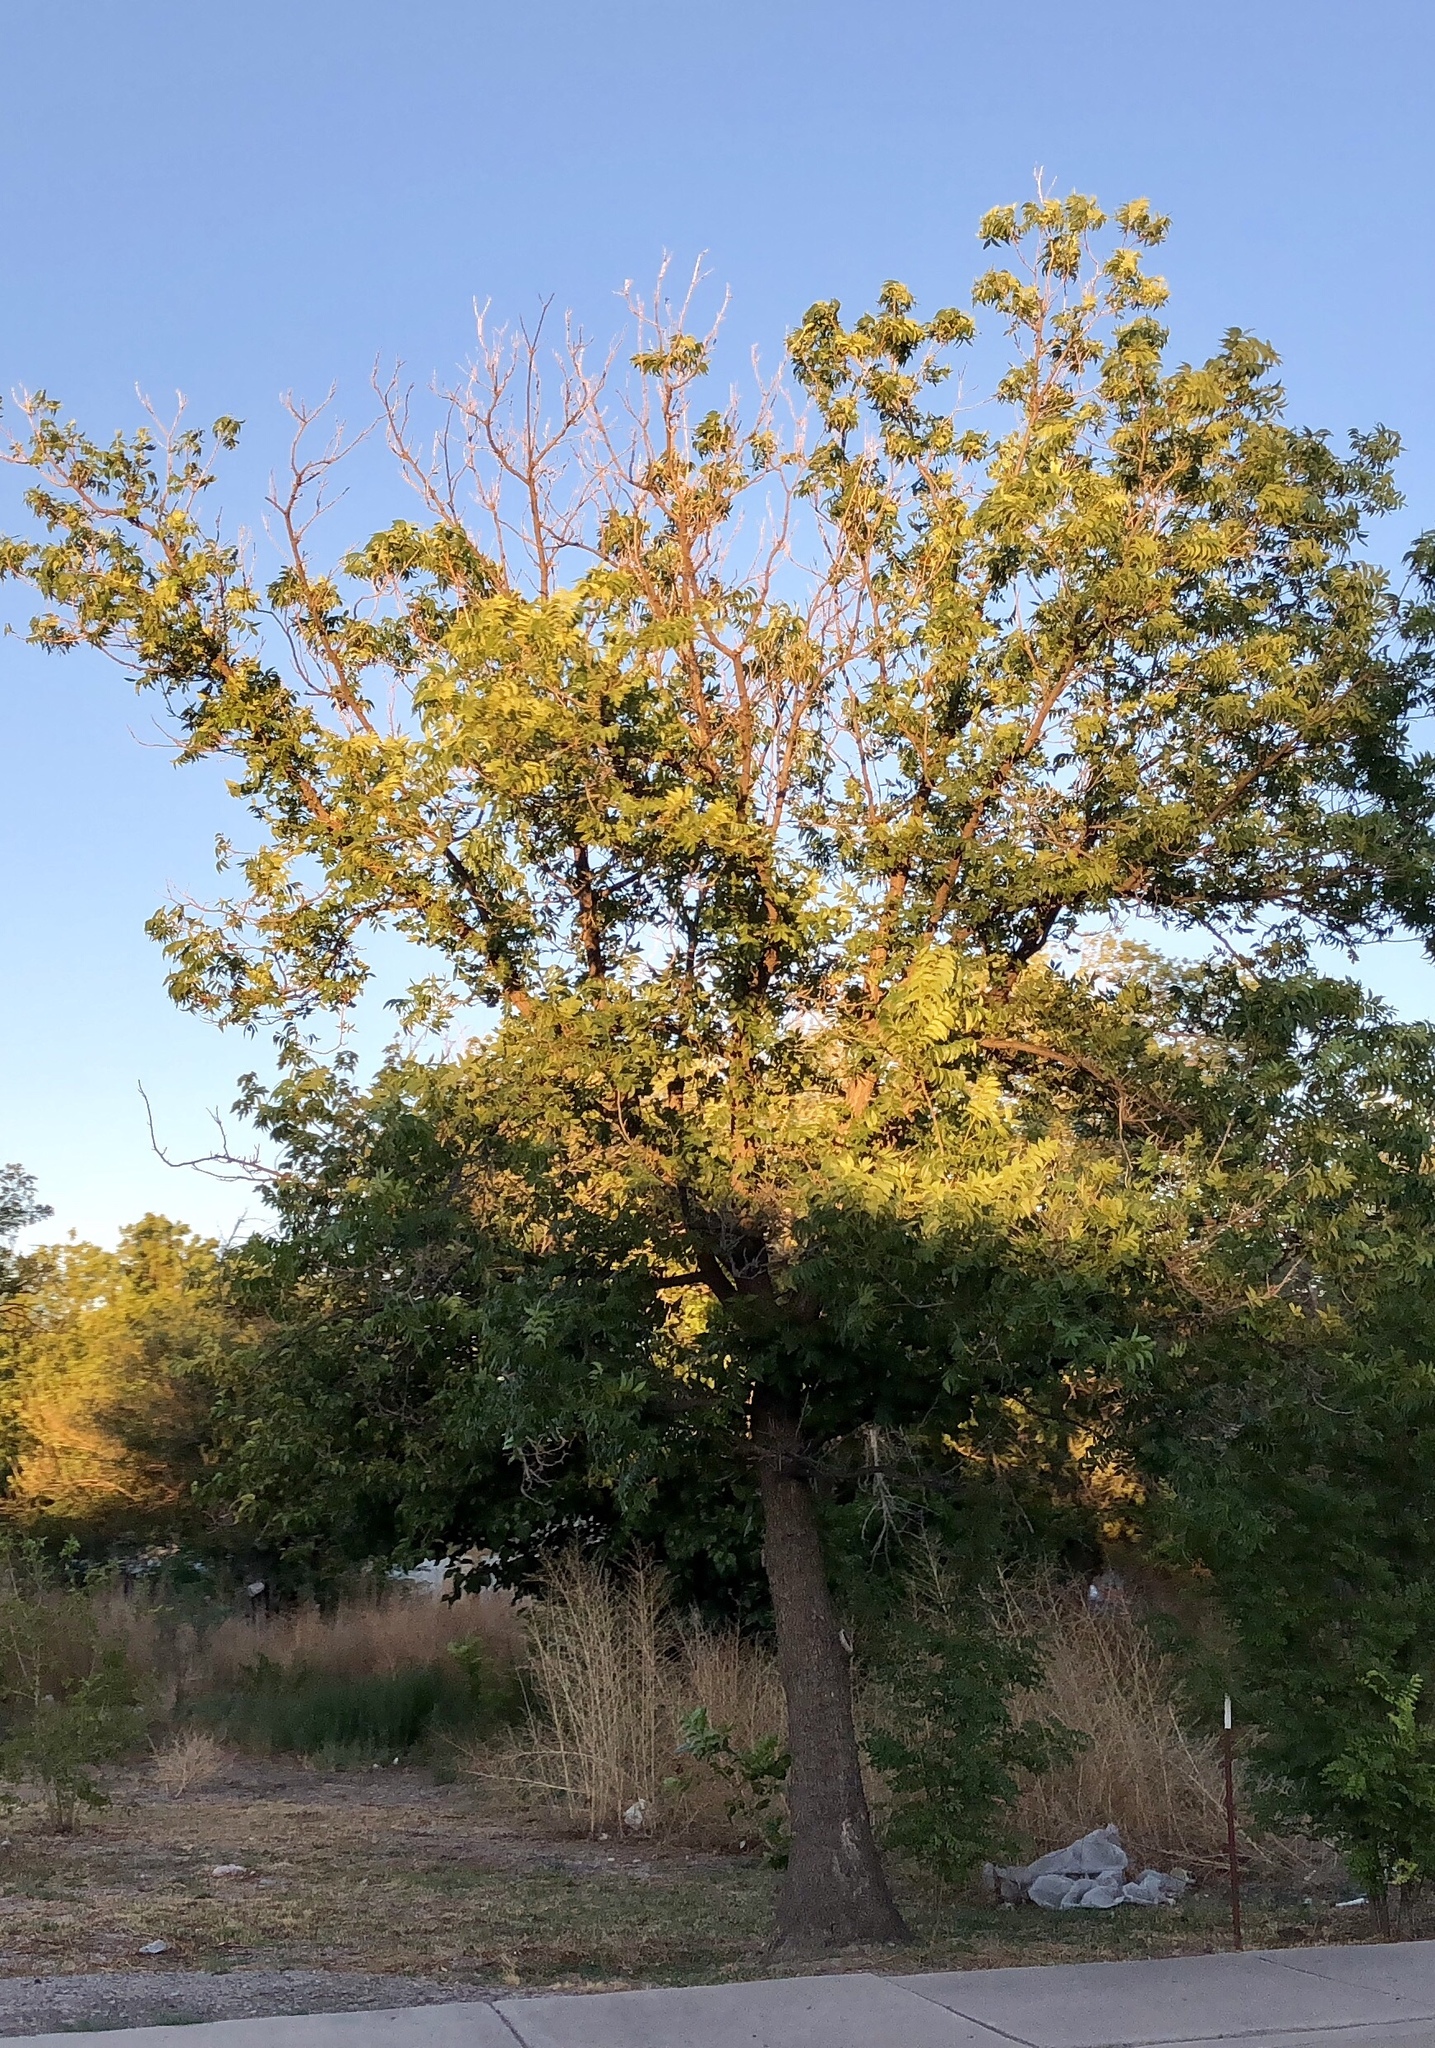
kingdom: Plantae
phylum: Tracheophyta
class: Magnoliopsida
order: Lamiales
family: Oleaceae
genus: Fraxinus
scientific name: Fraxinus pennsylvanica
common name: Green ash
